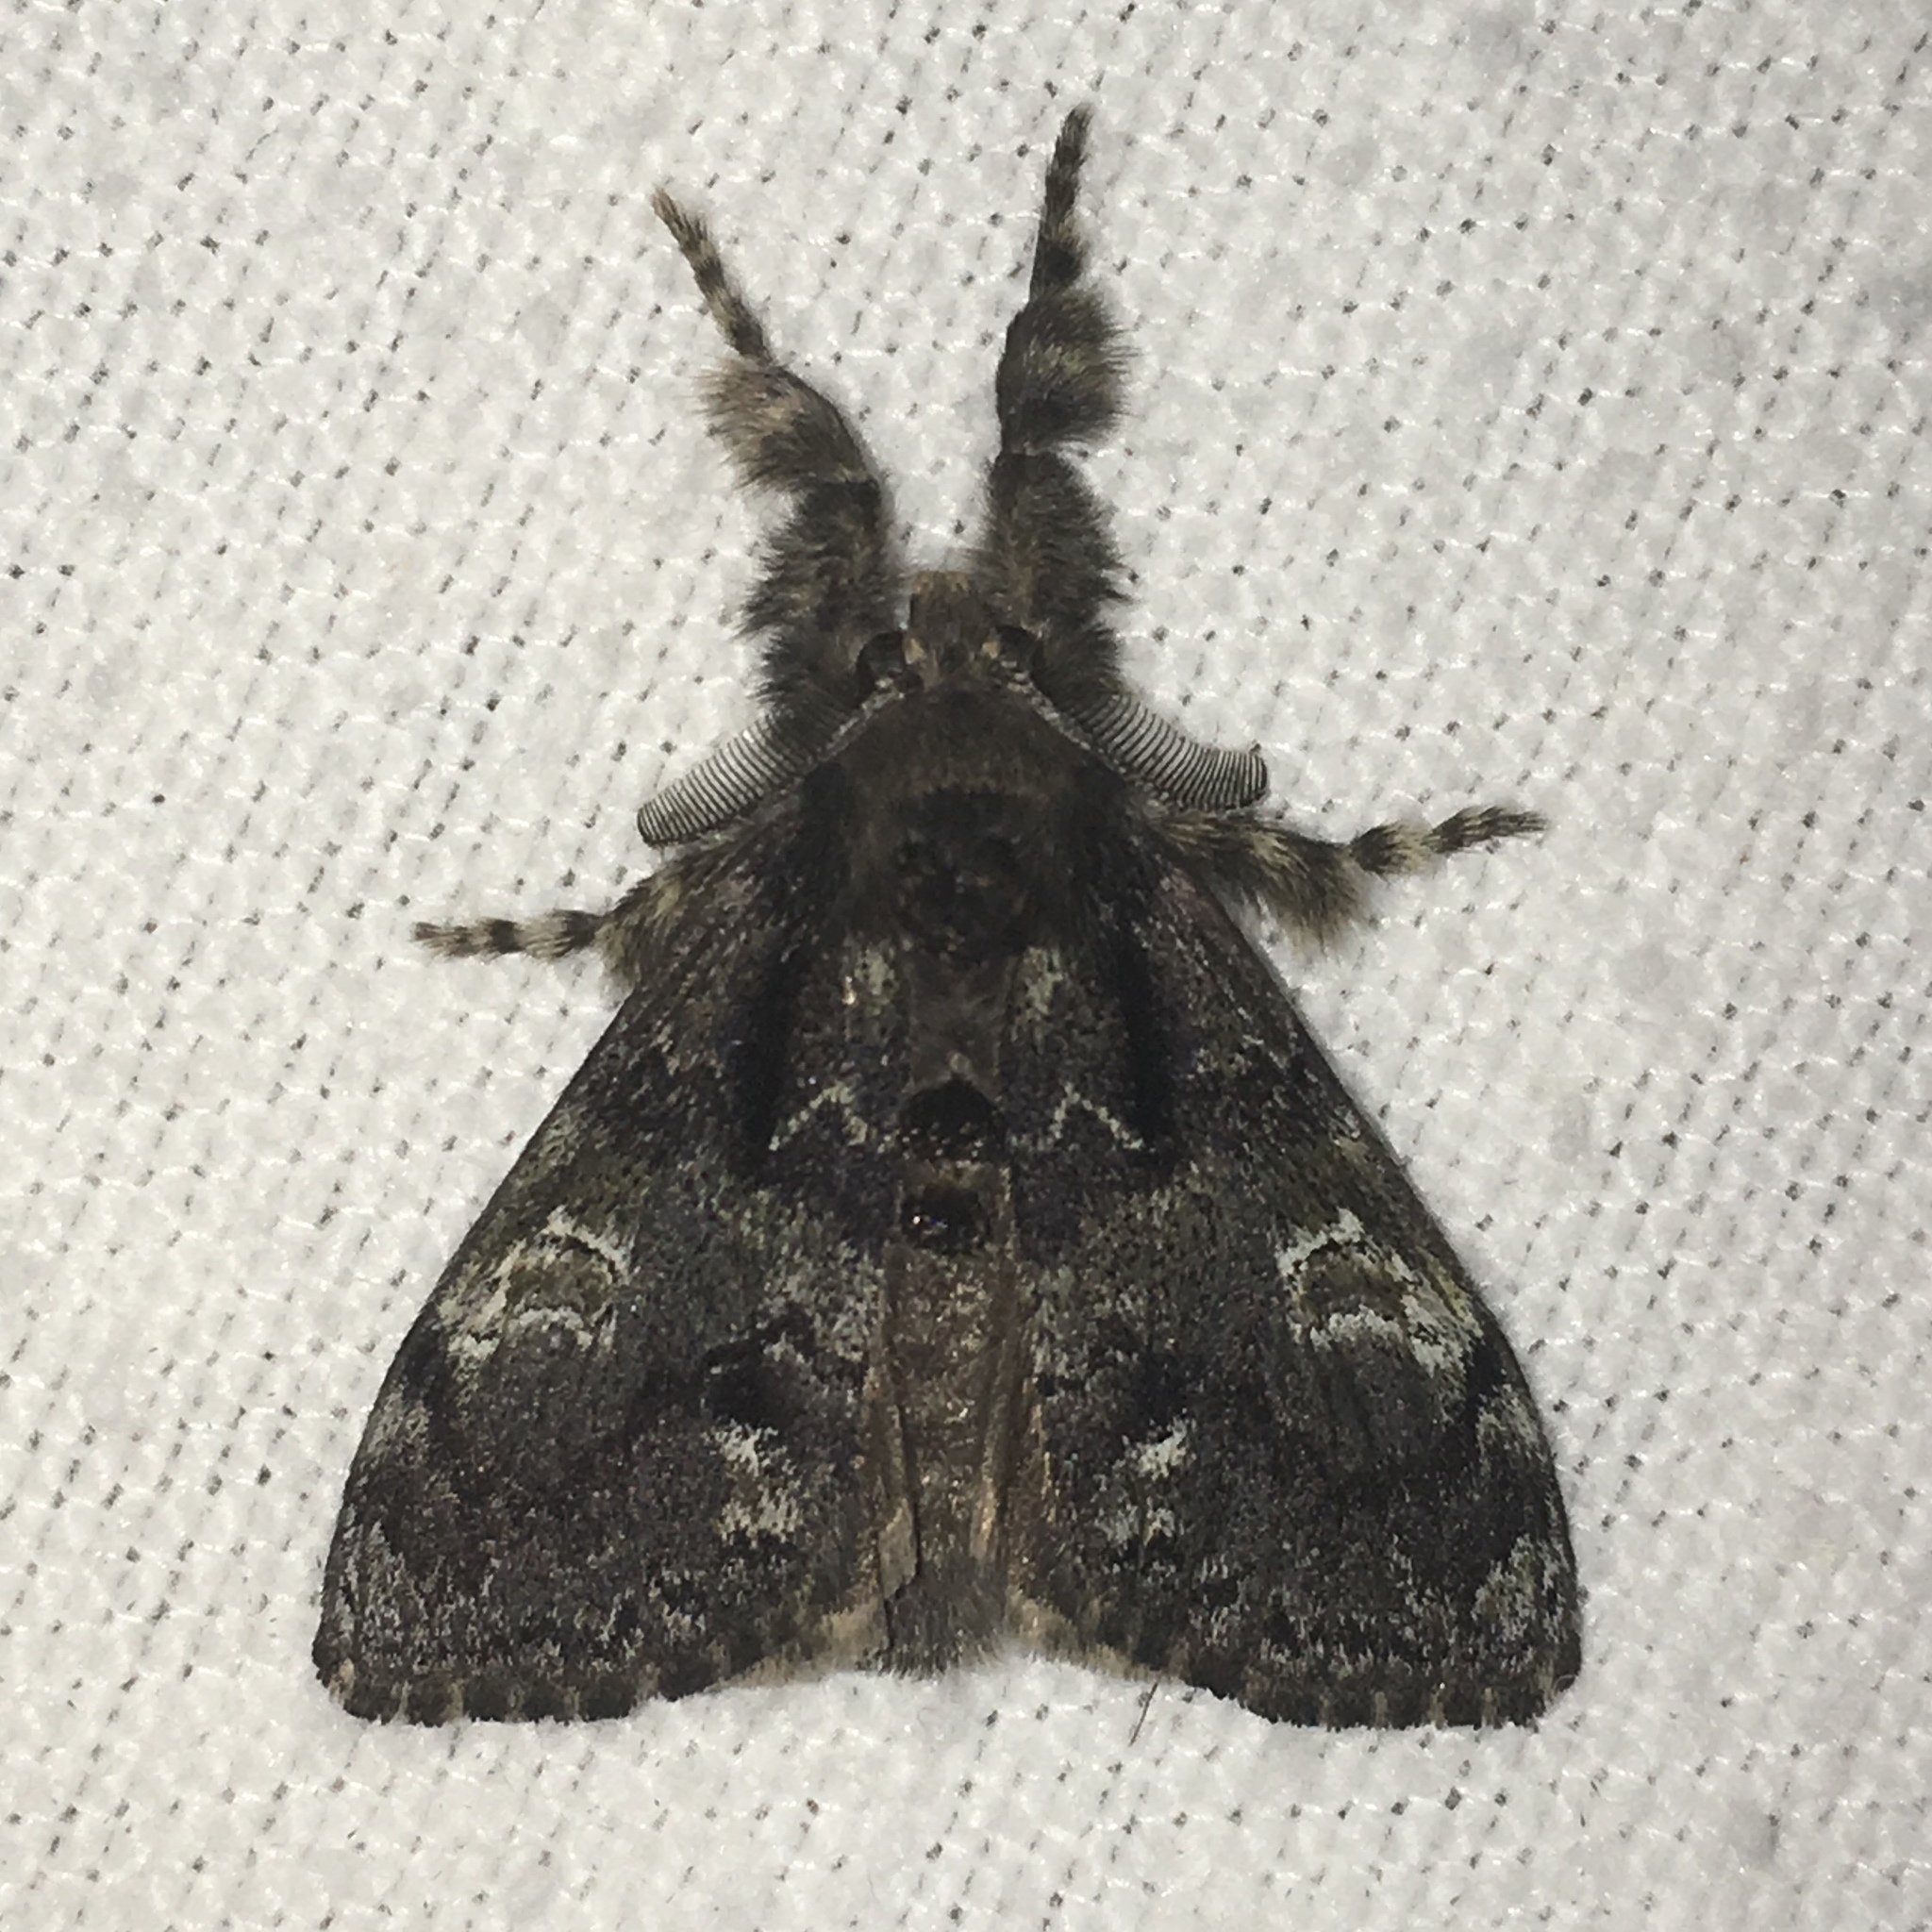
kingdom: Animalia
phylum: Arthropoda
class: Insecta
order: Lepidoptera
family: Erebidae
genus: Orgyia
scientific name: Orgyia leucostigma
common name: White-marked tussock moth
